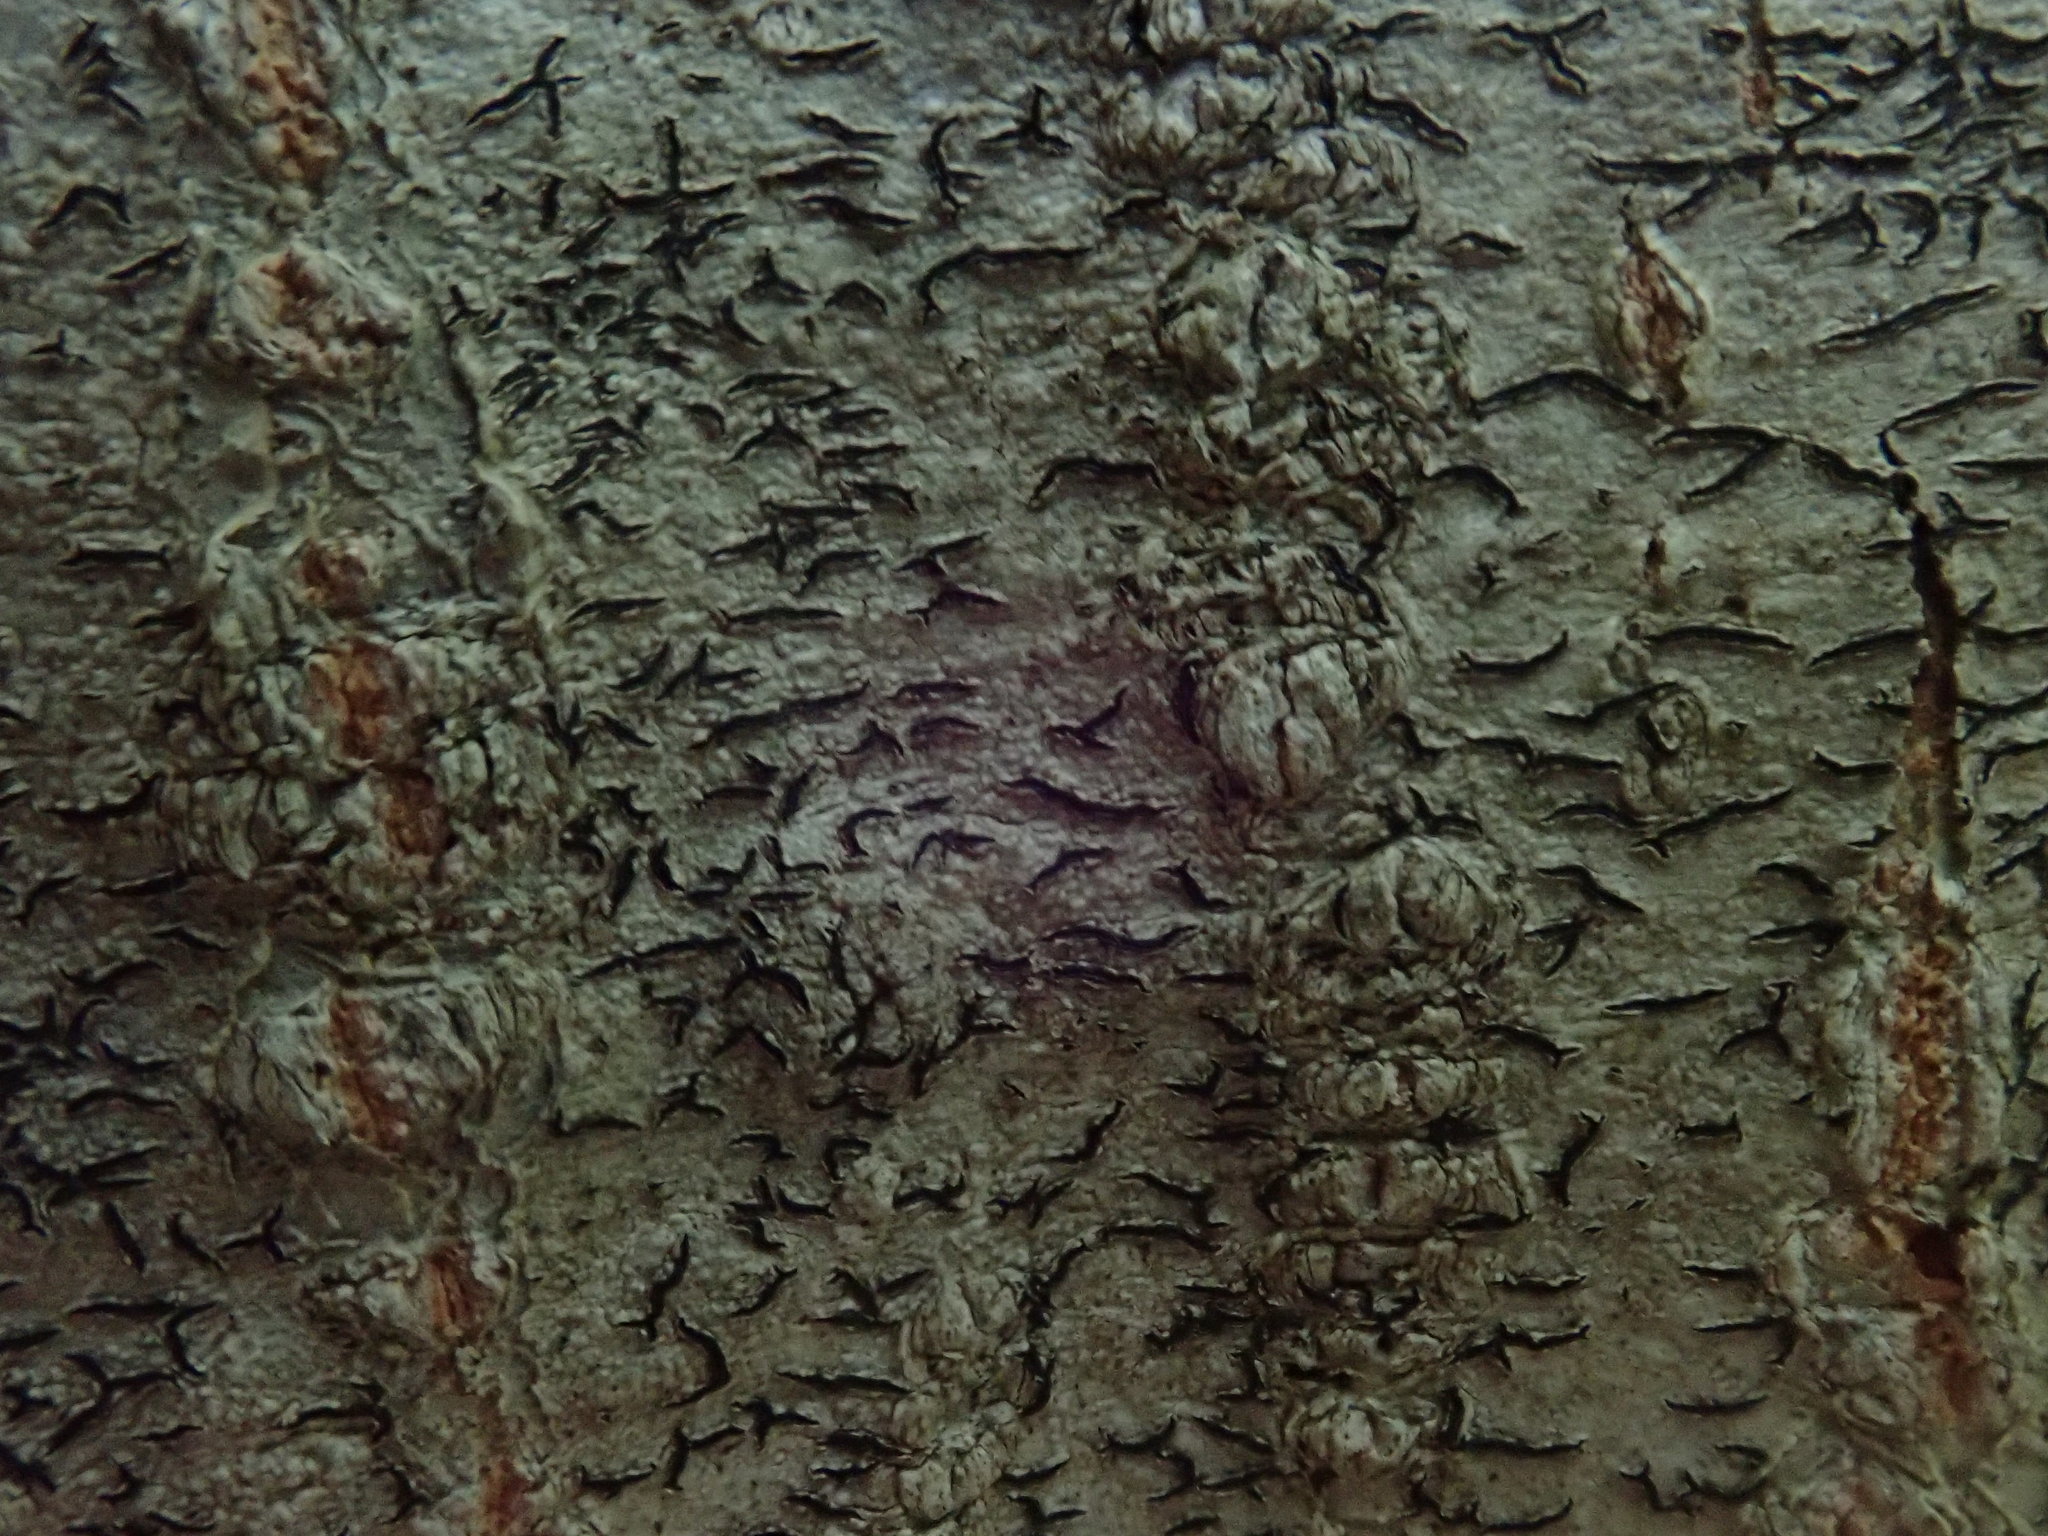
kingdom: Fungi
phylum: Ascomycota
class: Lecanoromycetes
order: Ostropales
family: Graphidaceae
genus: Graphis
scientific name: Graphis scripta
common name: Script lichen
